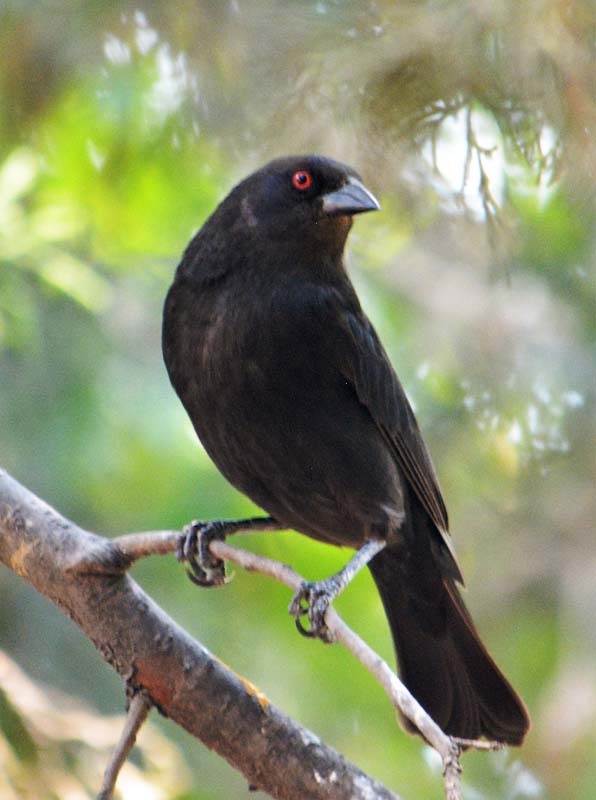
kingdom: Animalia
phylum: Chordata
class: Aves
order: Passeriformes
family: Icteridae
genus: Molothrus
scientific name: Molothrus aeneus
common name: Bronzed cowbird
